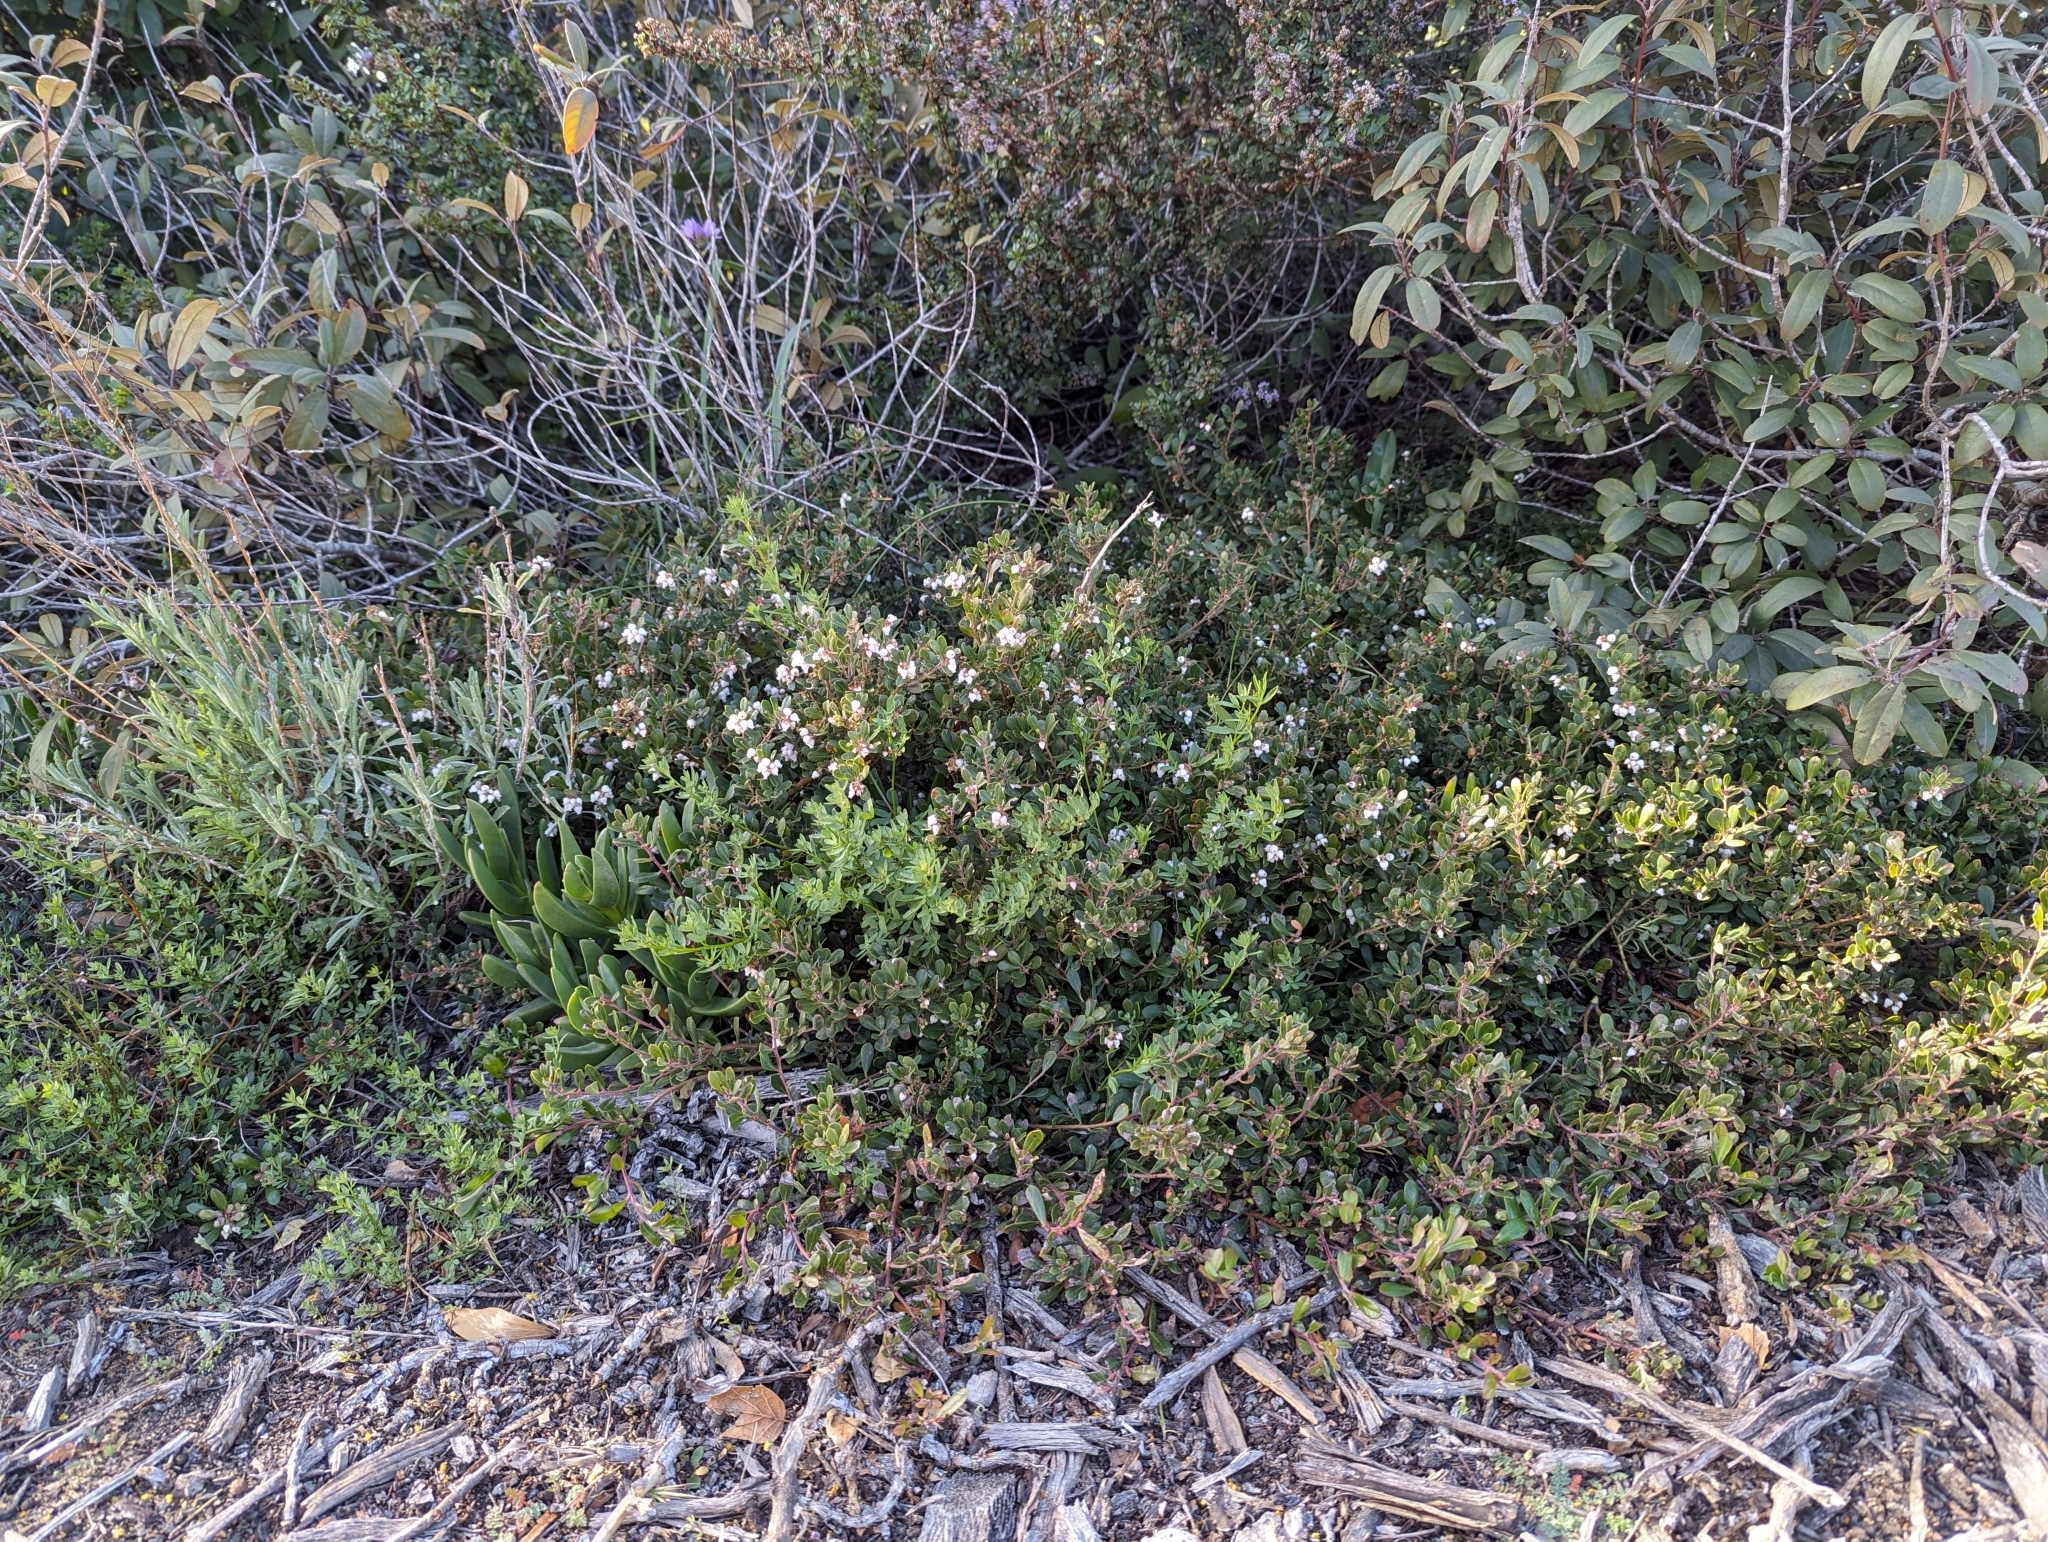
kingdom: Plantae
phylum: Tracheophyta
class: Magnoliopsida
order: Ericales
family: Ericaceae
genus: Arctostaphylos
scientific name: Arctostaphylos pumila
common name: Sandmat manzanita
